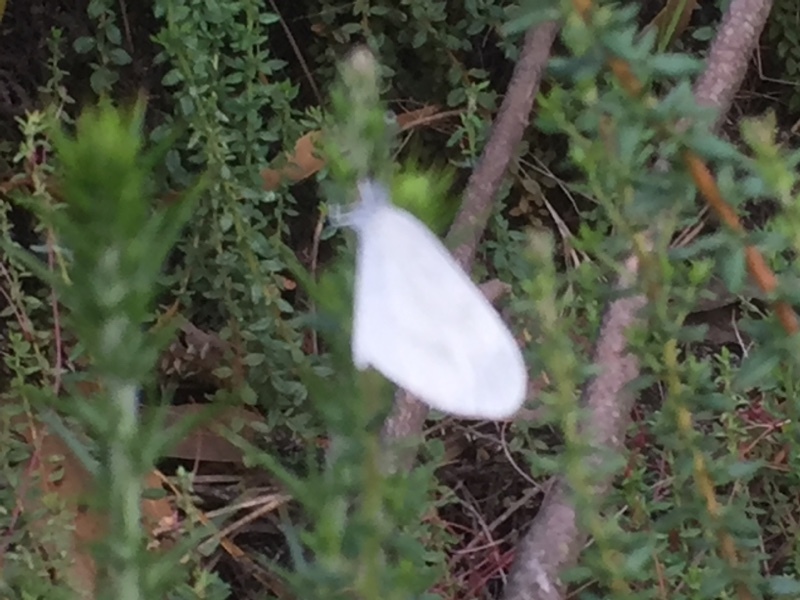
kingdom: Animalia
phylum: Arthropoda
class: Insecta
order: Lepidoptera
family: Pieridae
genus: Leptidea
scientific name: Leptidea sinapis
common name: Wood white
